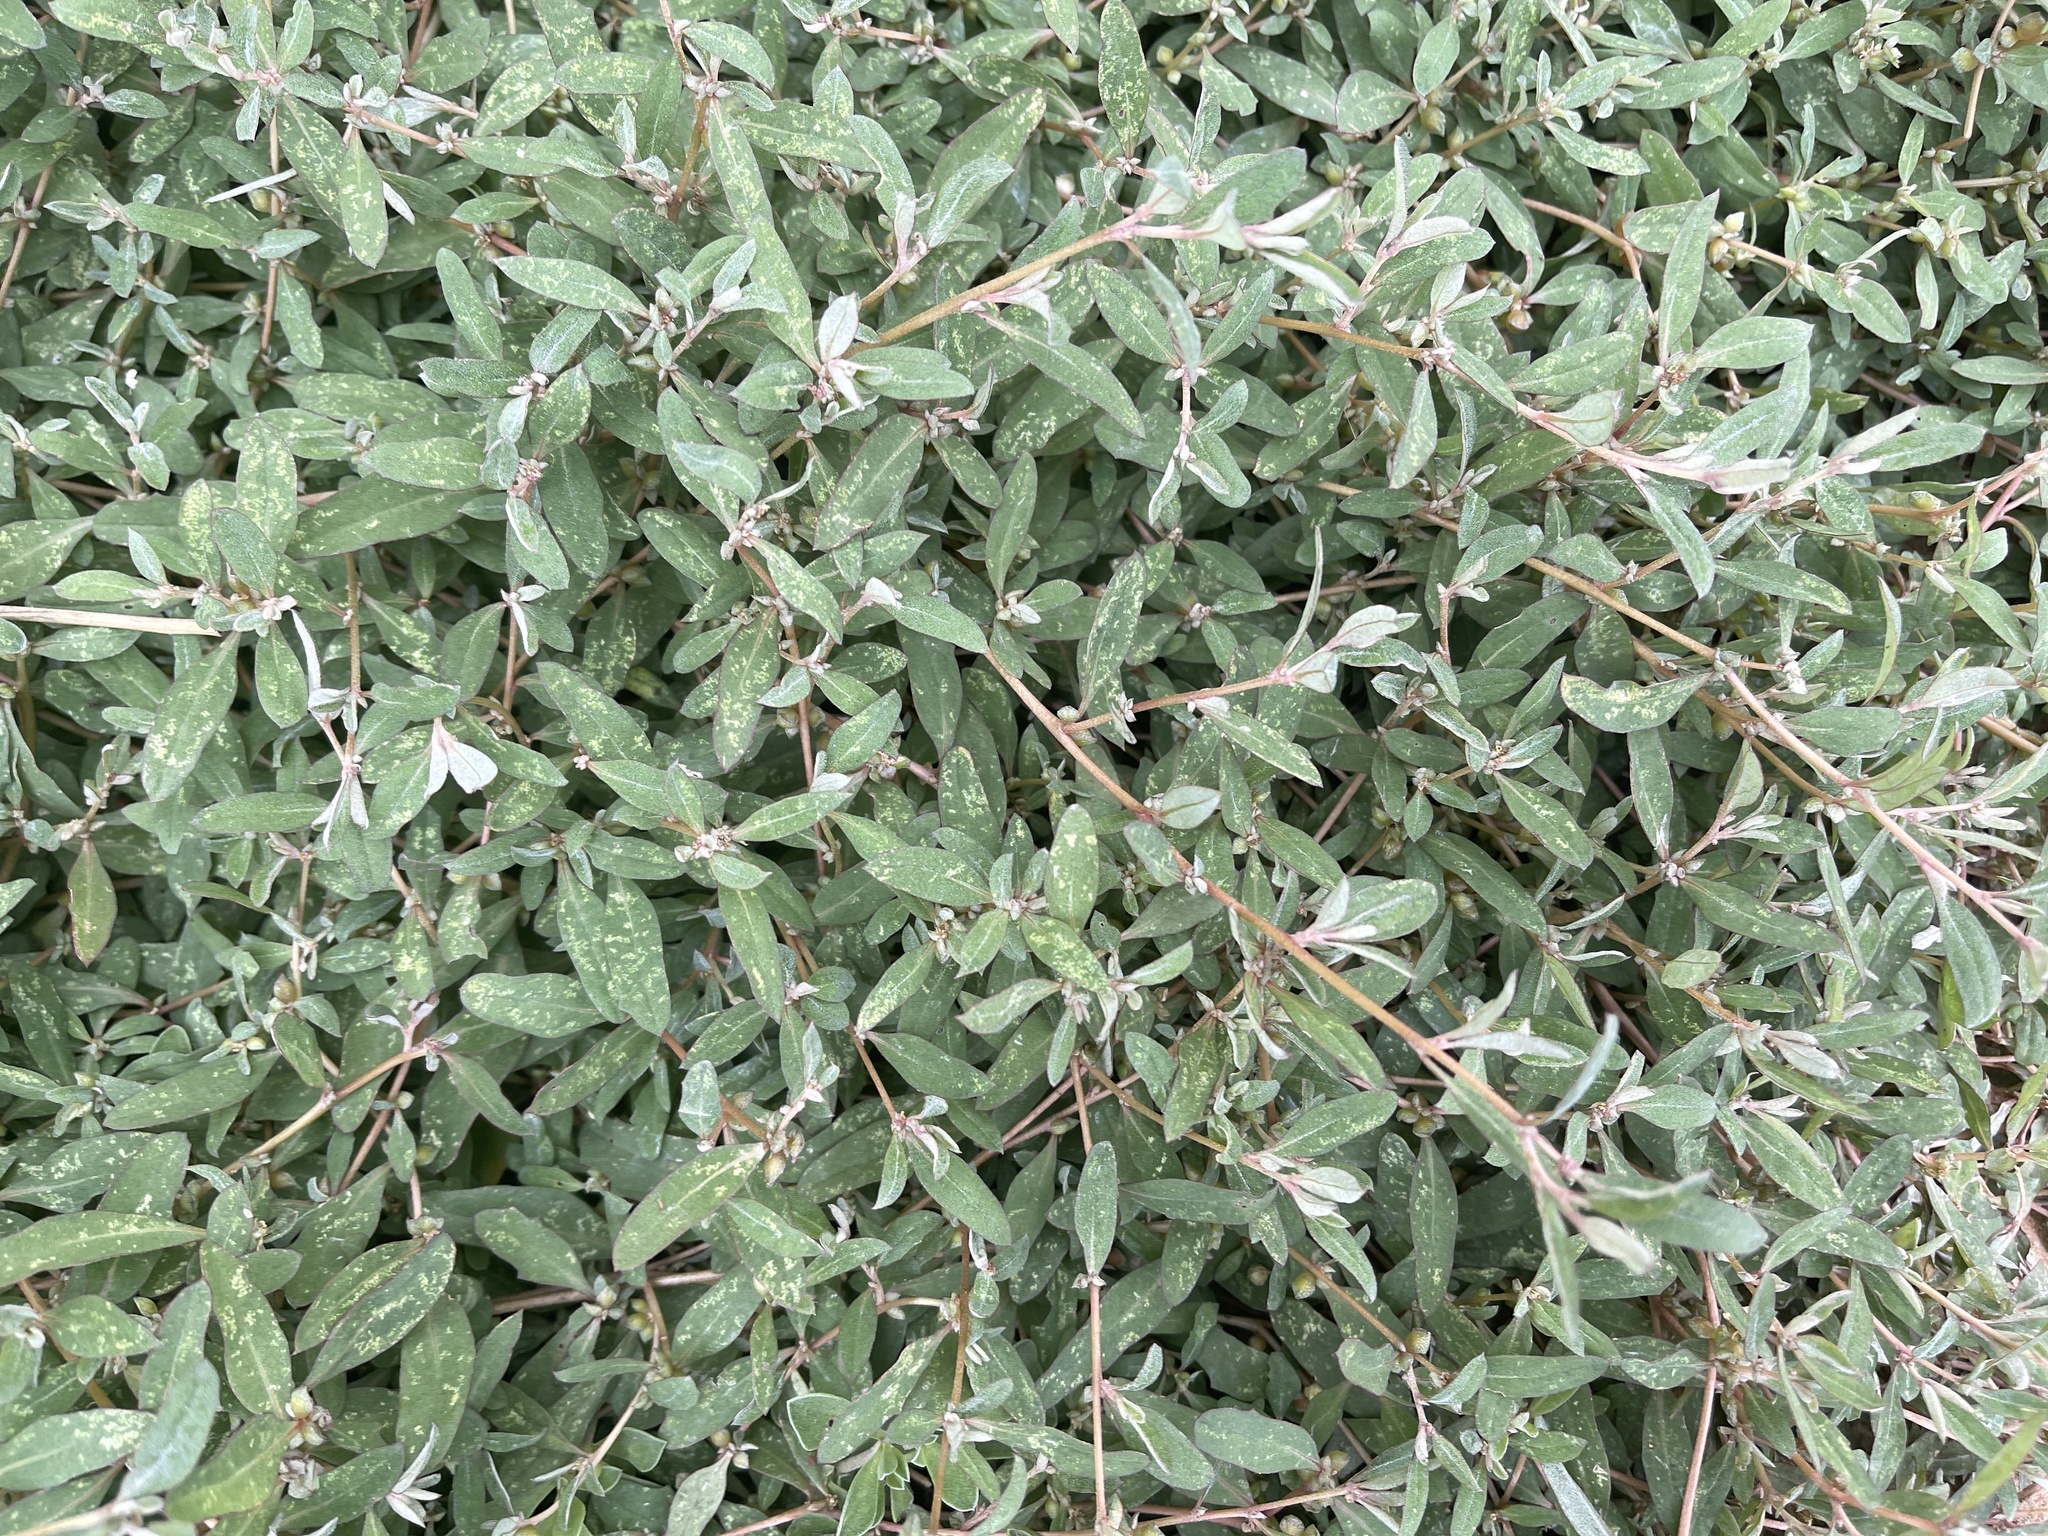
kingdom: Plantae
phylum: Tracheophyta
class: Magnoliopsida
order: Caryophyllales
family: Amaranthaceae
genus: Atriplex
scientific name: Atriplex semibaccata
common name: Australian saltbush
